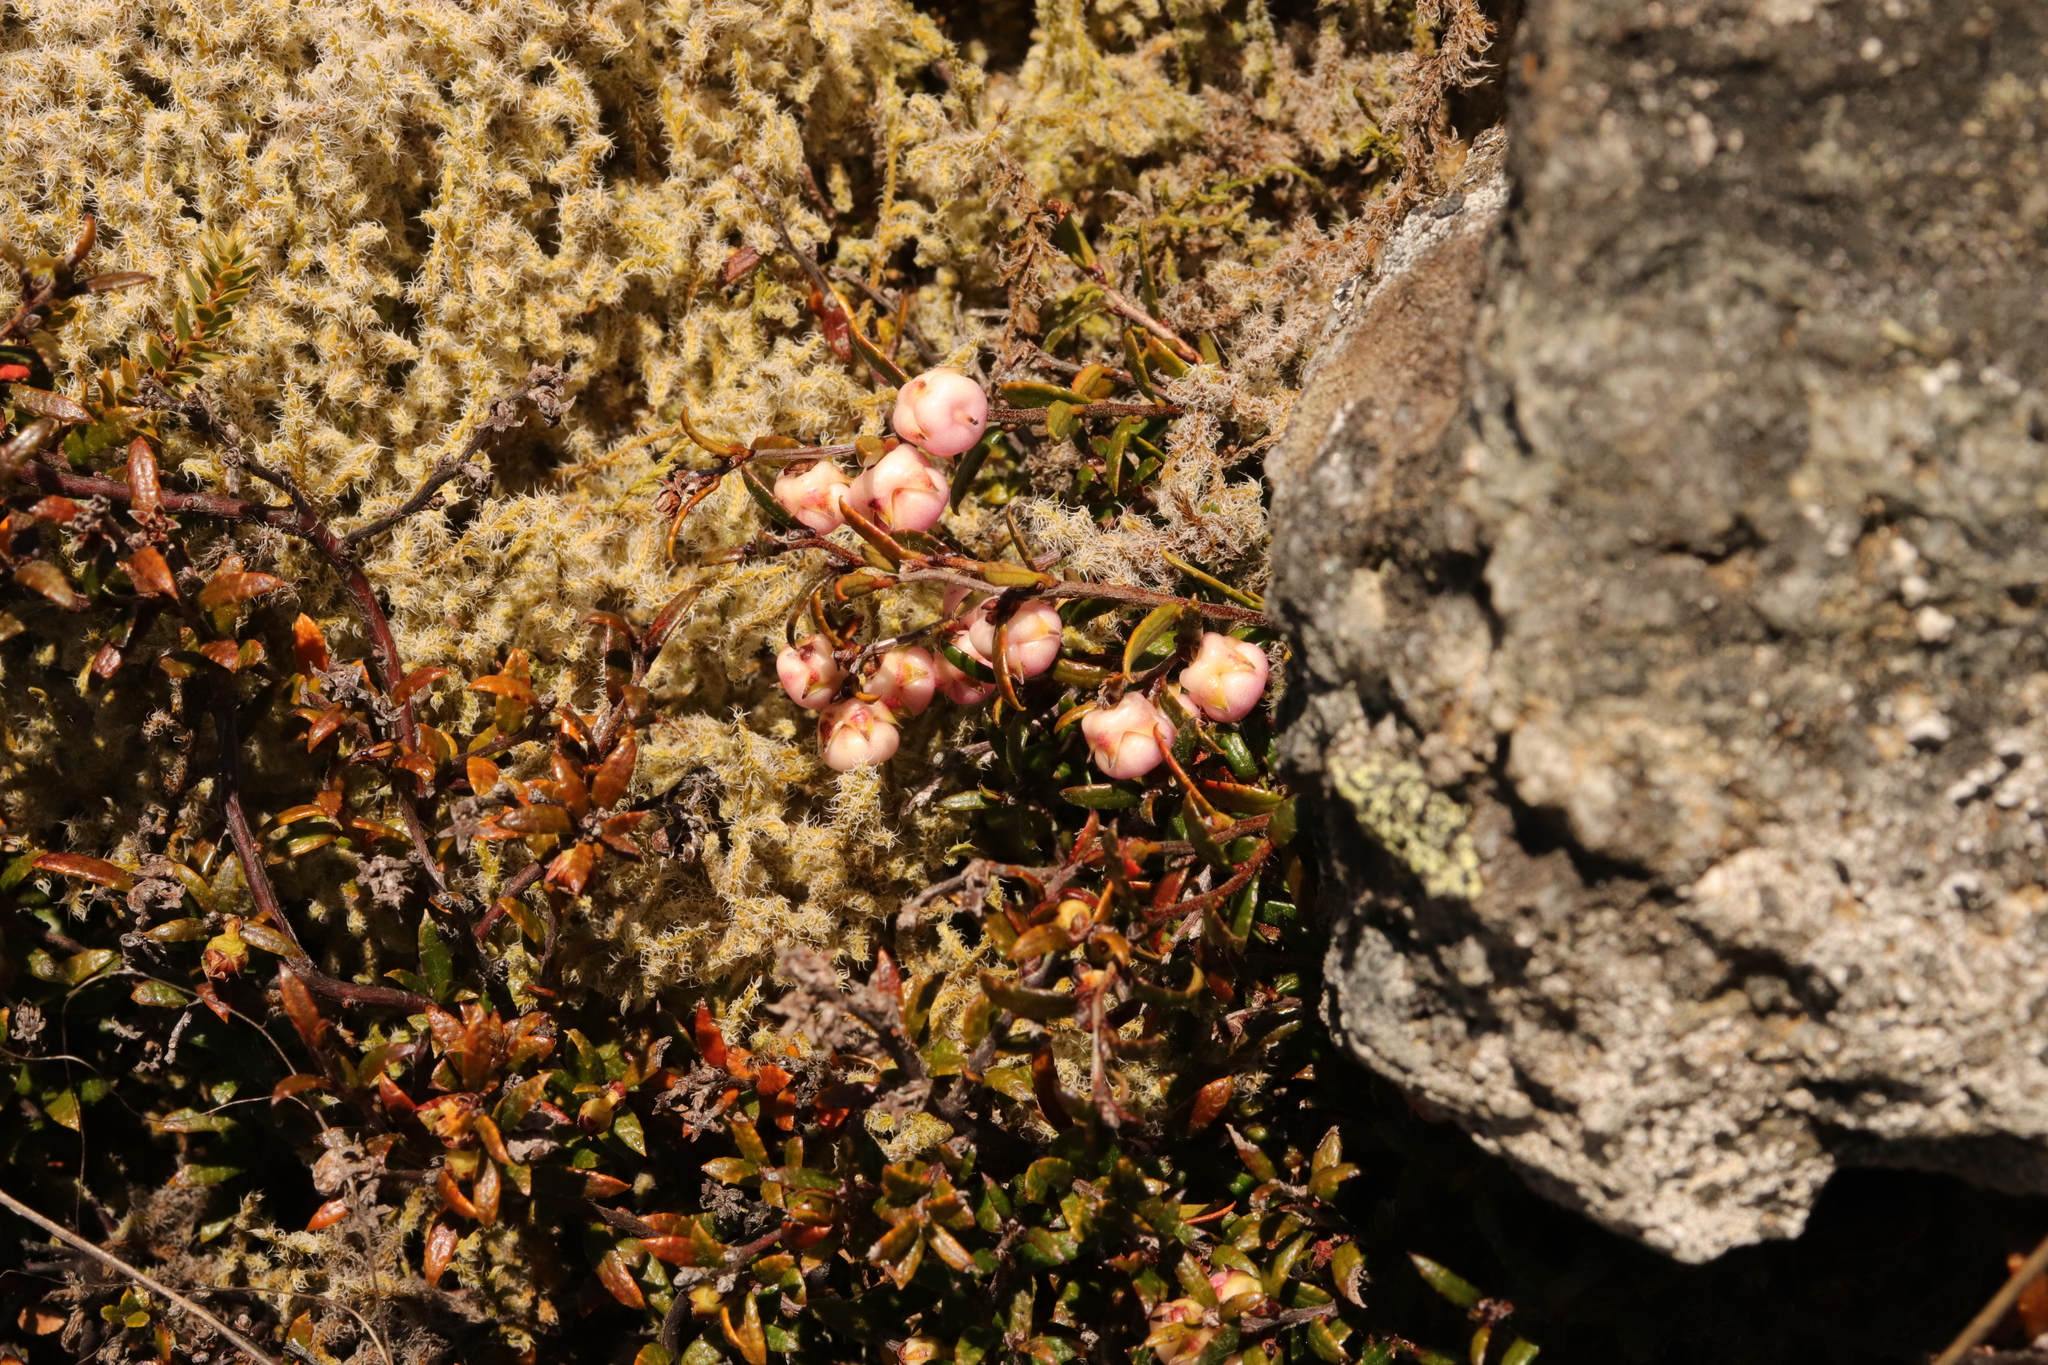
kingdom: Plantae
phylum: Tracheophyta
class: Magnoliopsida
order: Ericales
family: Ericaceae
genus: Gaultheria
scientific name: Gaultheria macrostigma
